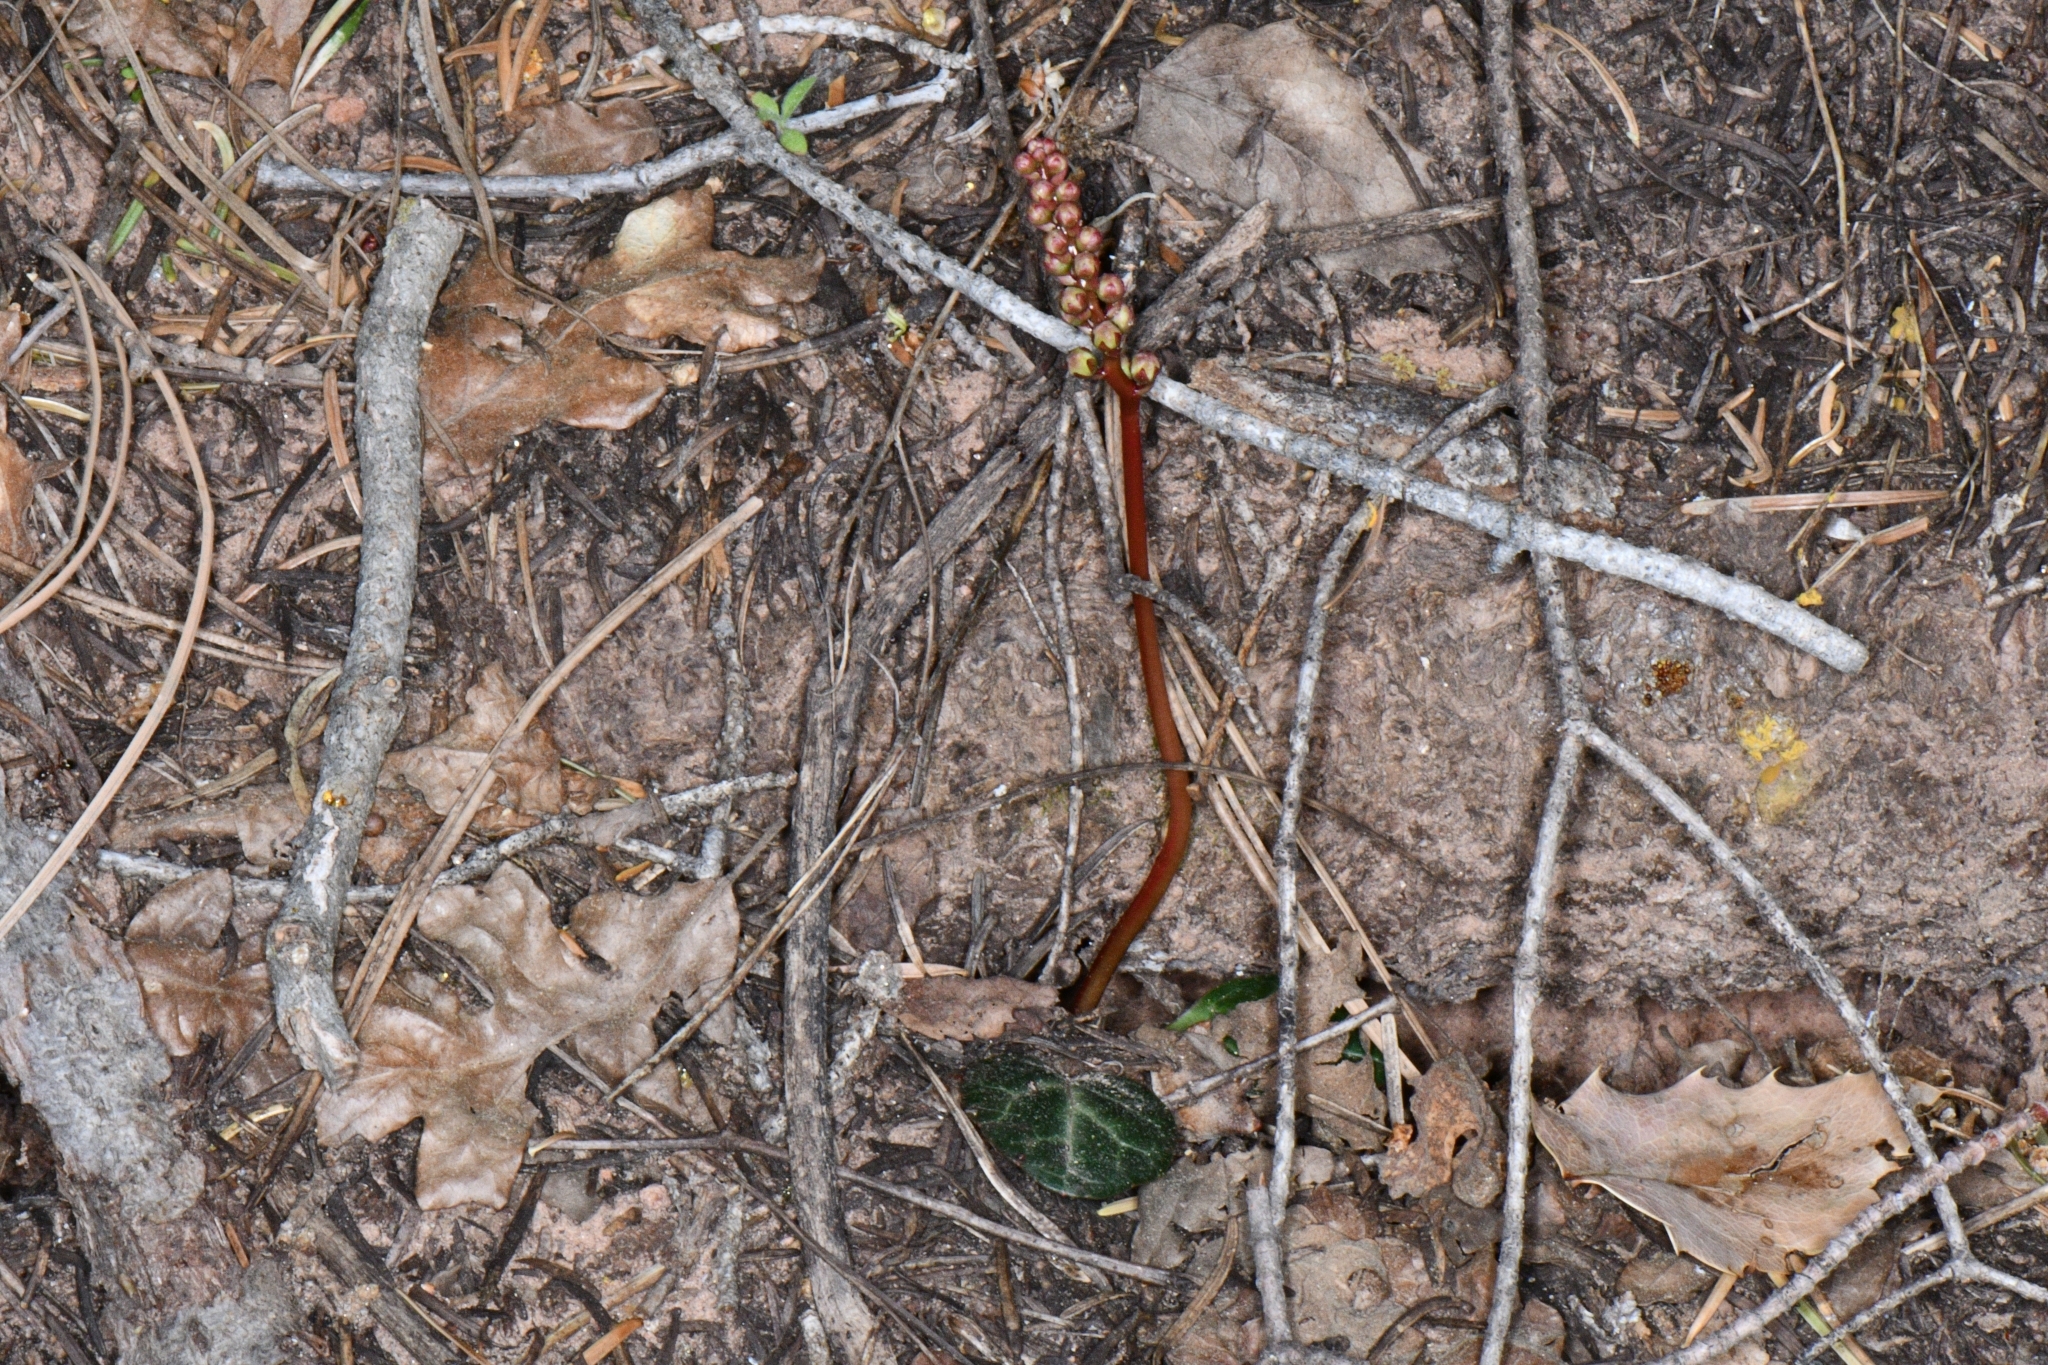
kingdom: Plantae
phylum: Tracheophyta
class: Magnoliopsida
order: Ericales
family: Ericaceae
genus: Pyrola
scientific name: Pyrola picta
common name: White-vein wintergreen
